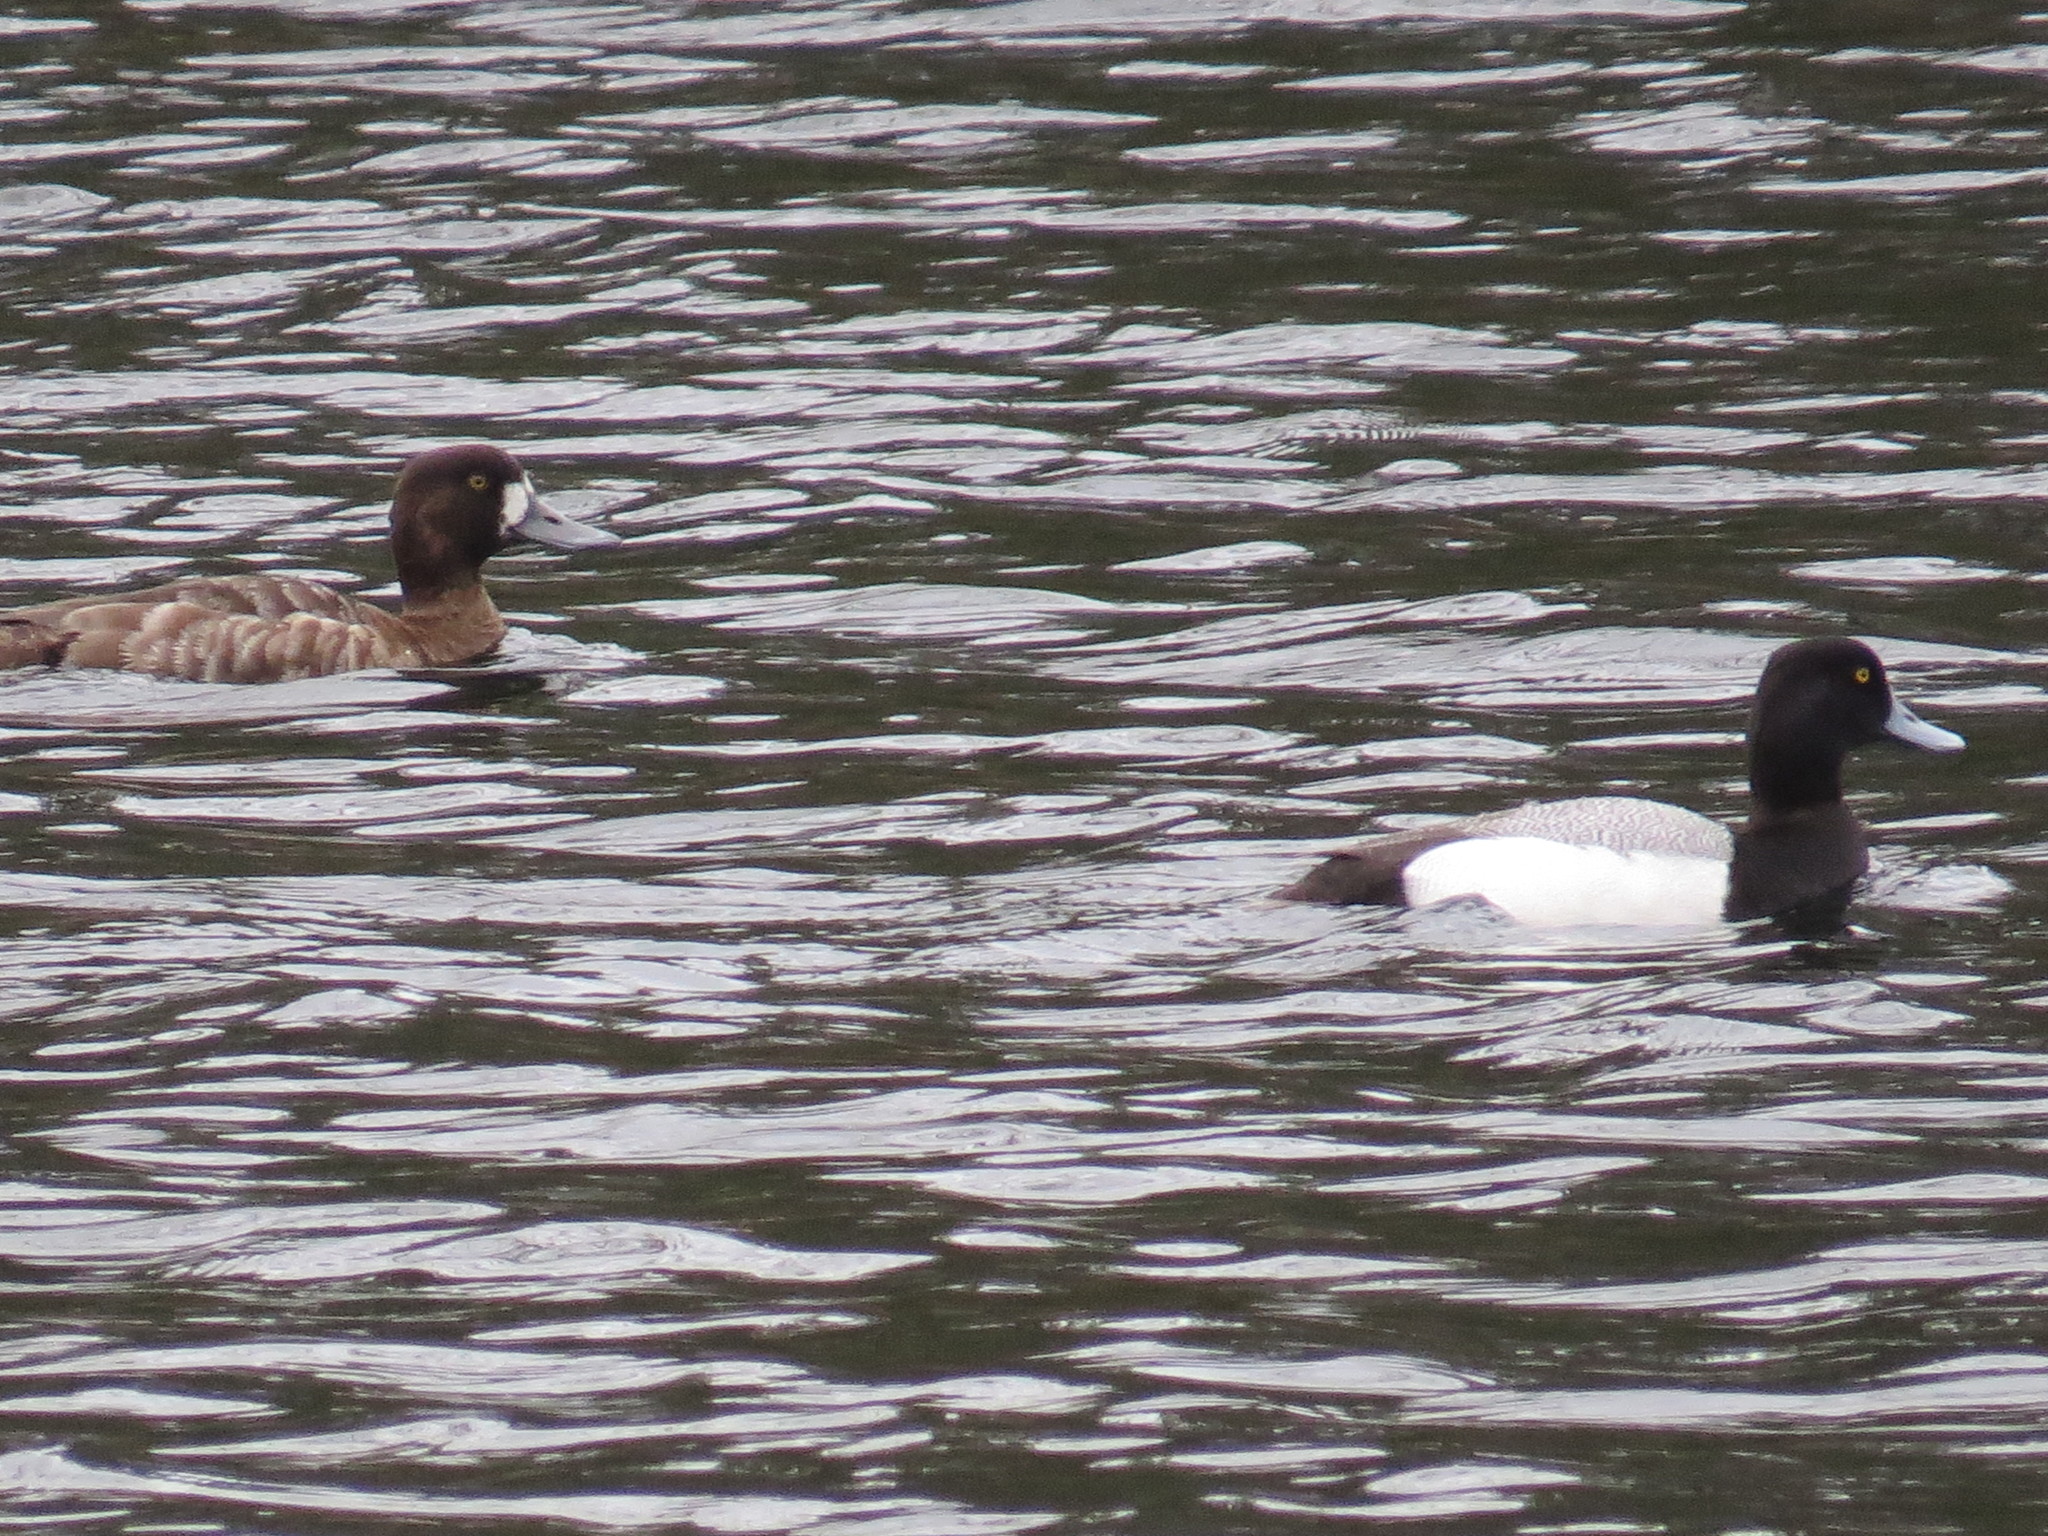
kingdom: Animalia
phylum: Chordata
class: Aves
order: Anseriformes
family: Anatidae
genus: Aythya
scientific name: Aythya marila
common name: Greater scaup
